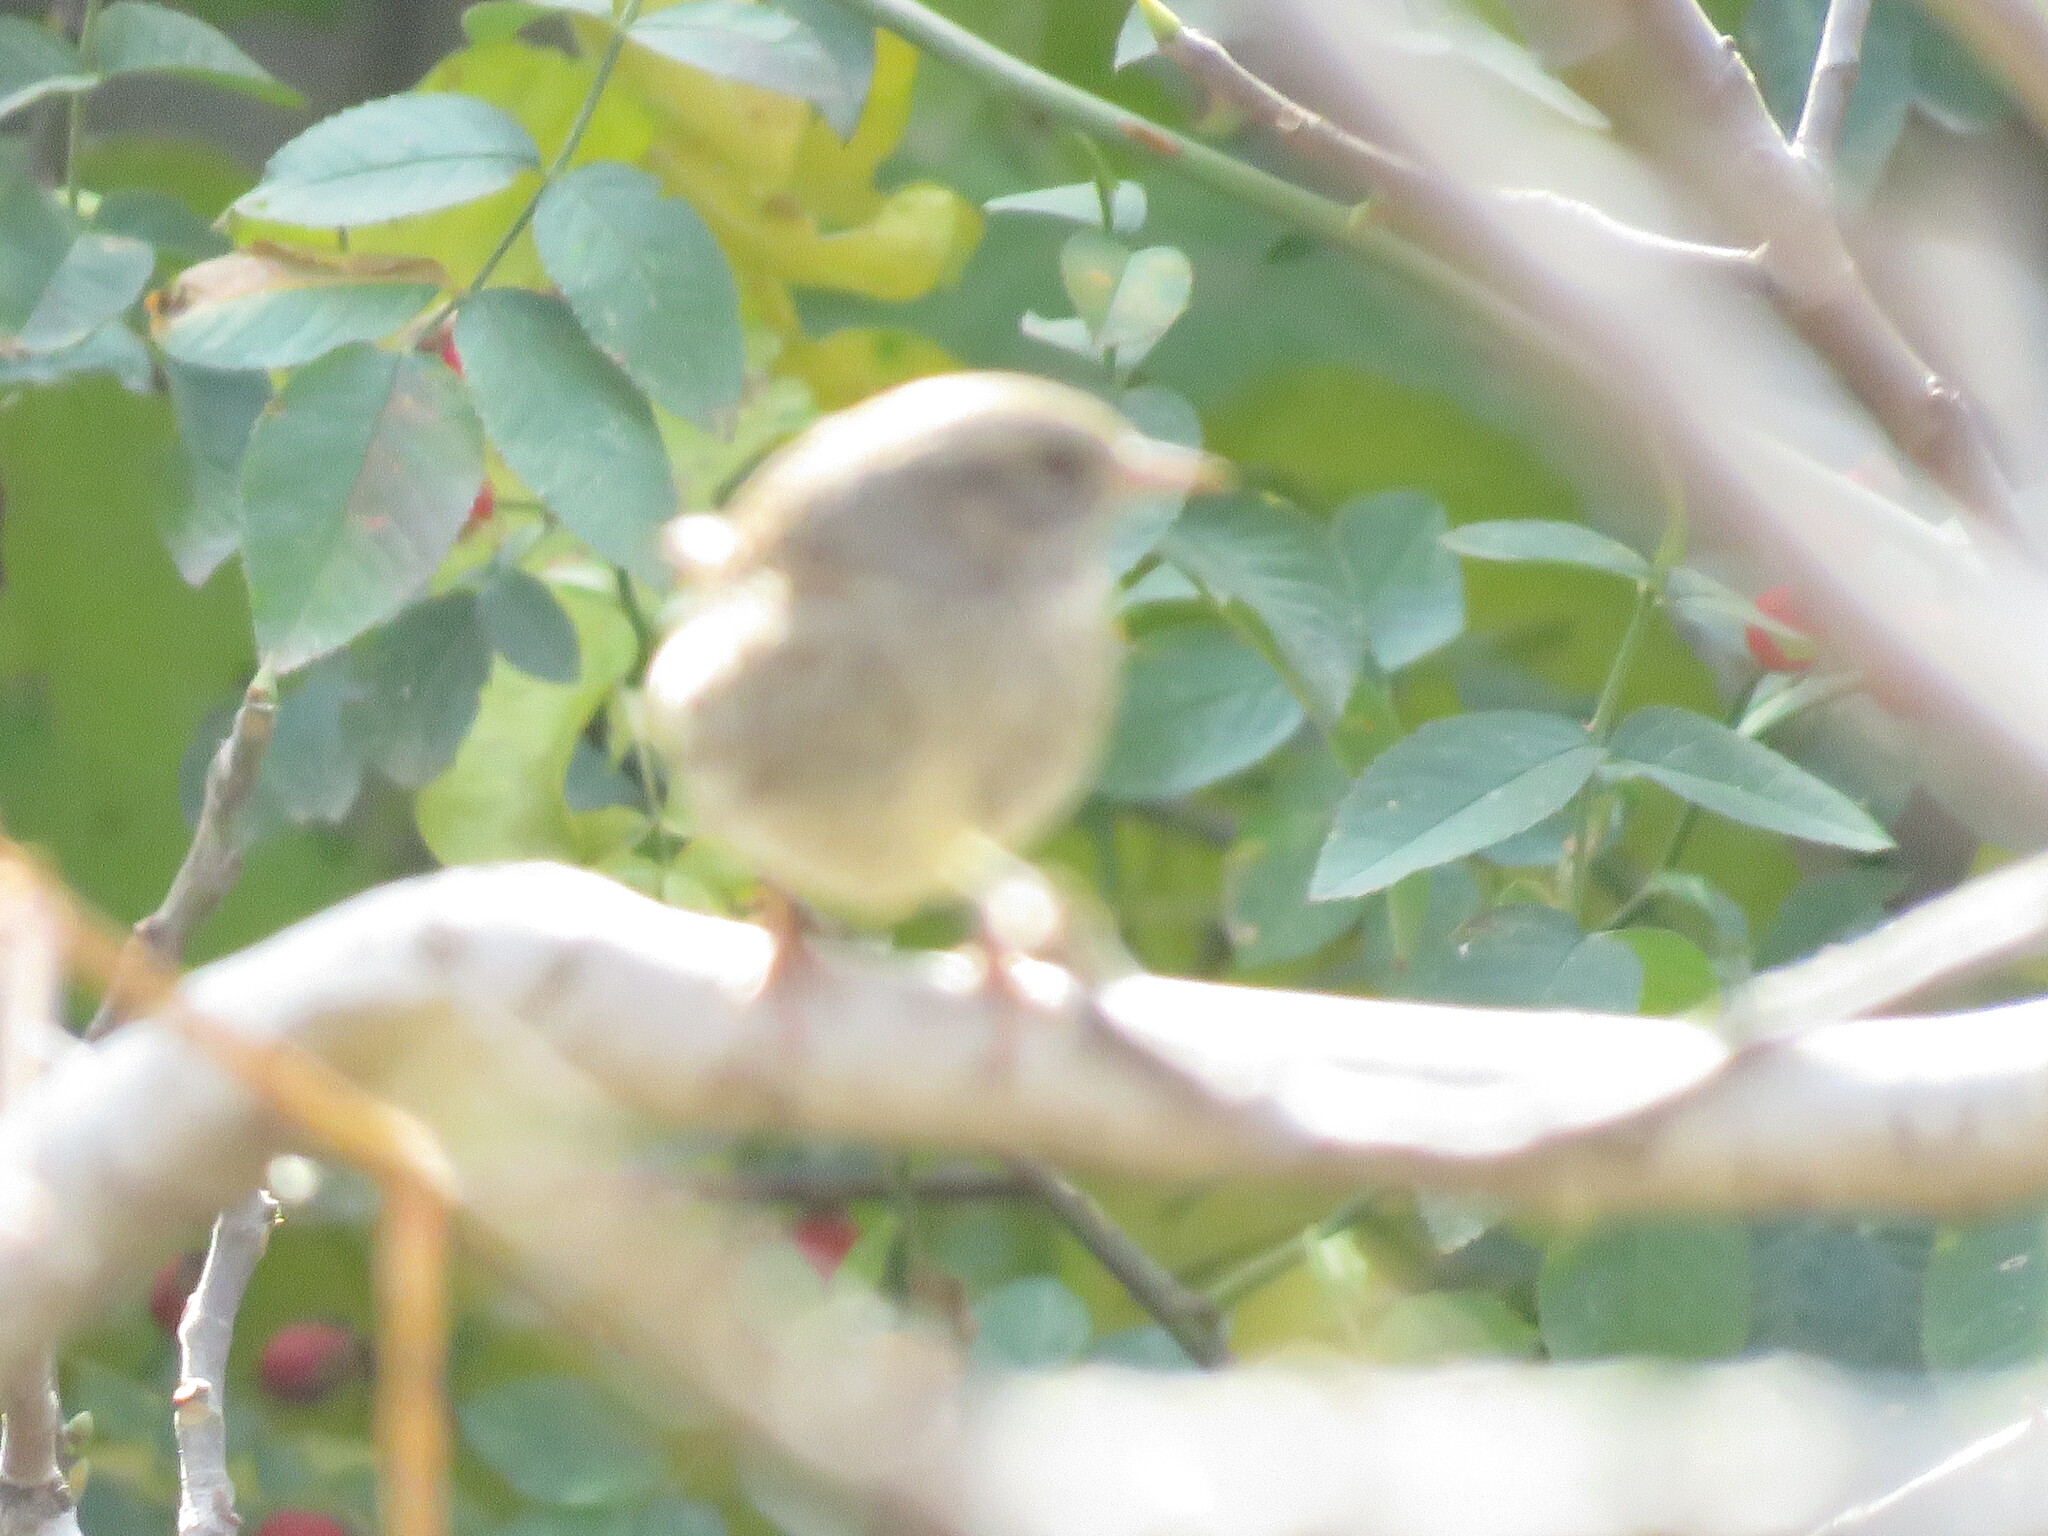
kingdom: Animalia
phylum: Chordata
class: Aves
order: Passeriformes
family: Prunellidae
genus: Prunella
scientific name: Prunella modularis
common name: Dunnock
